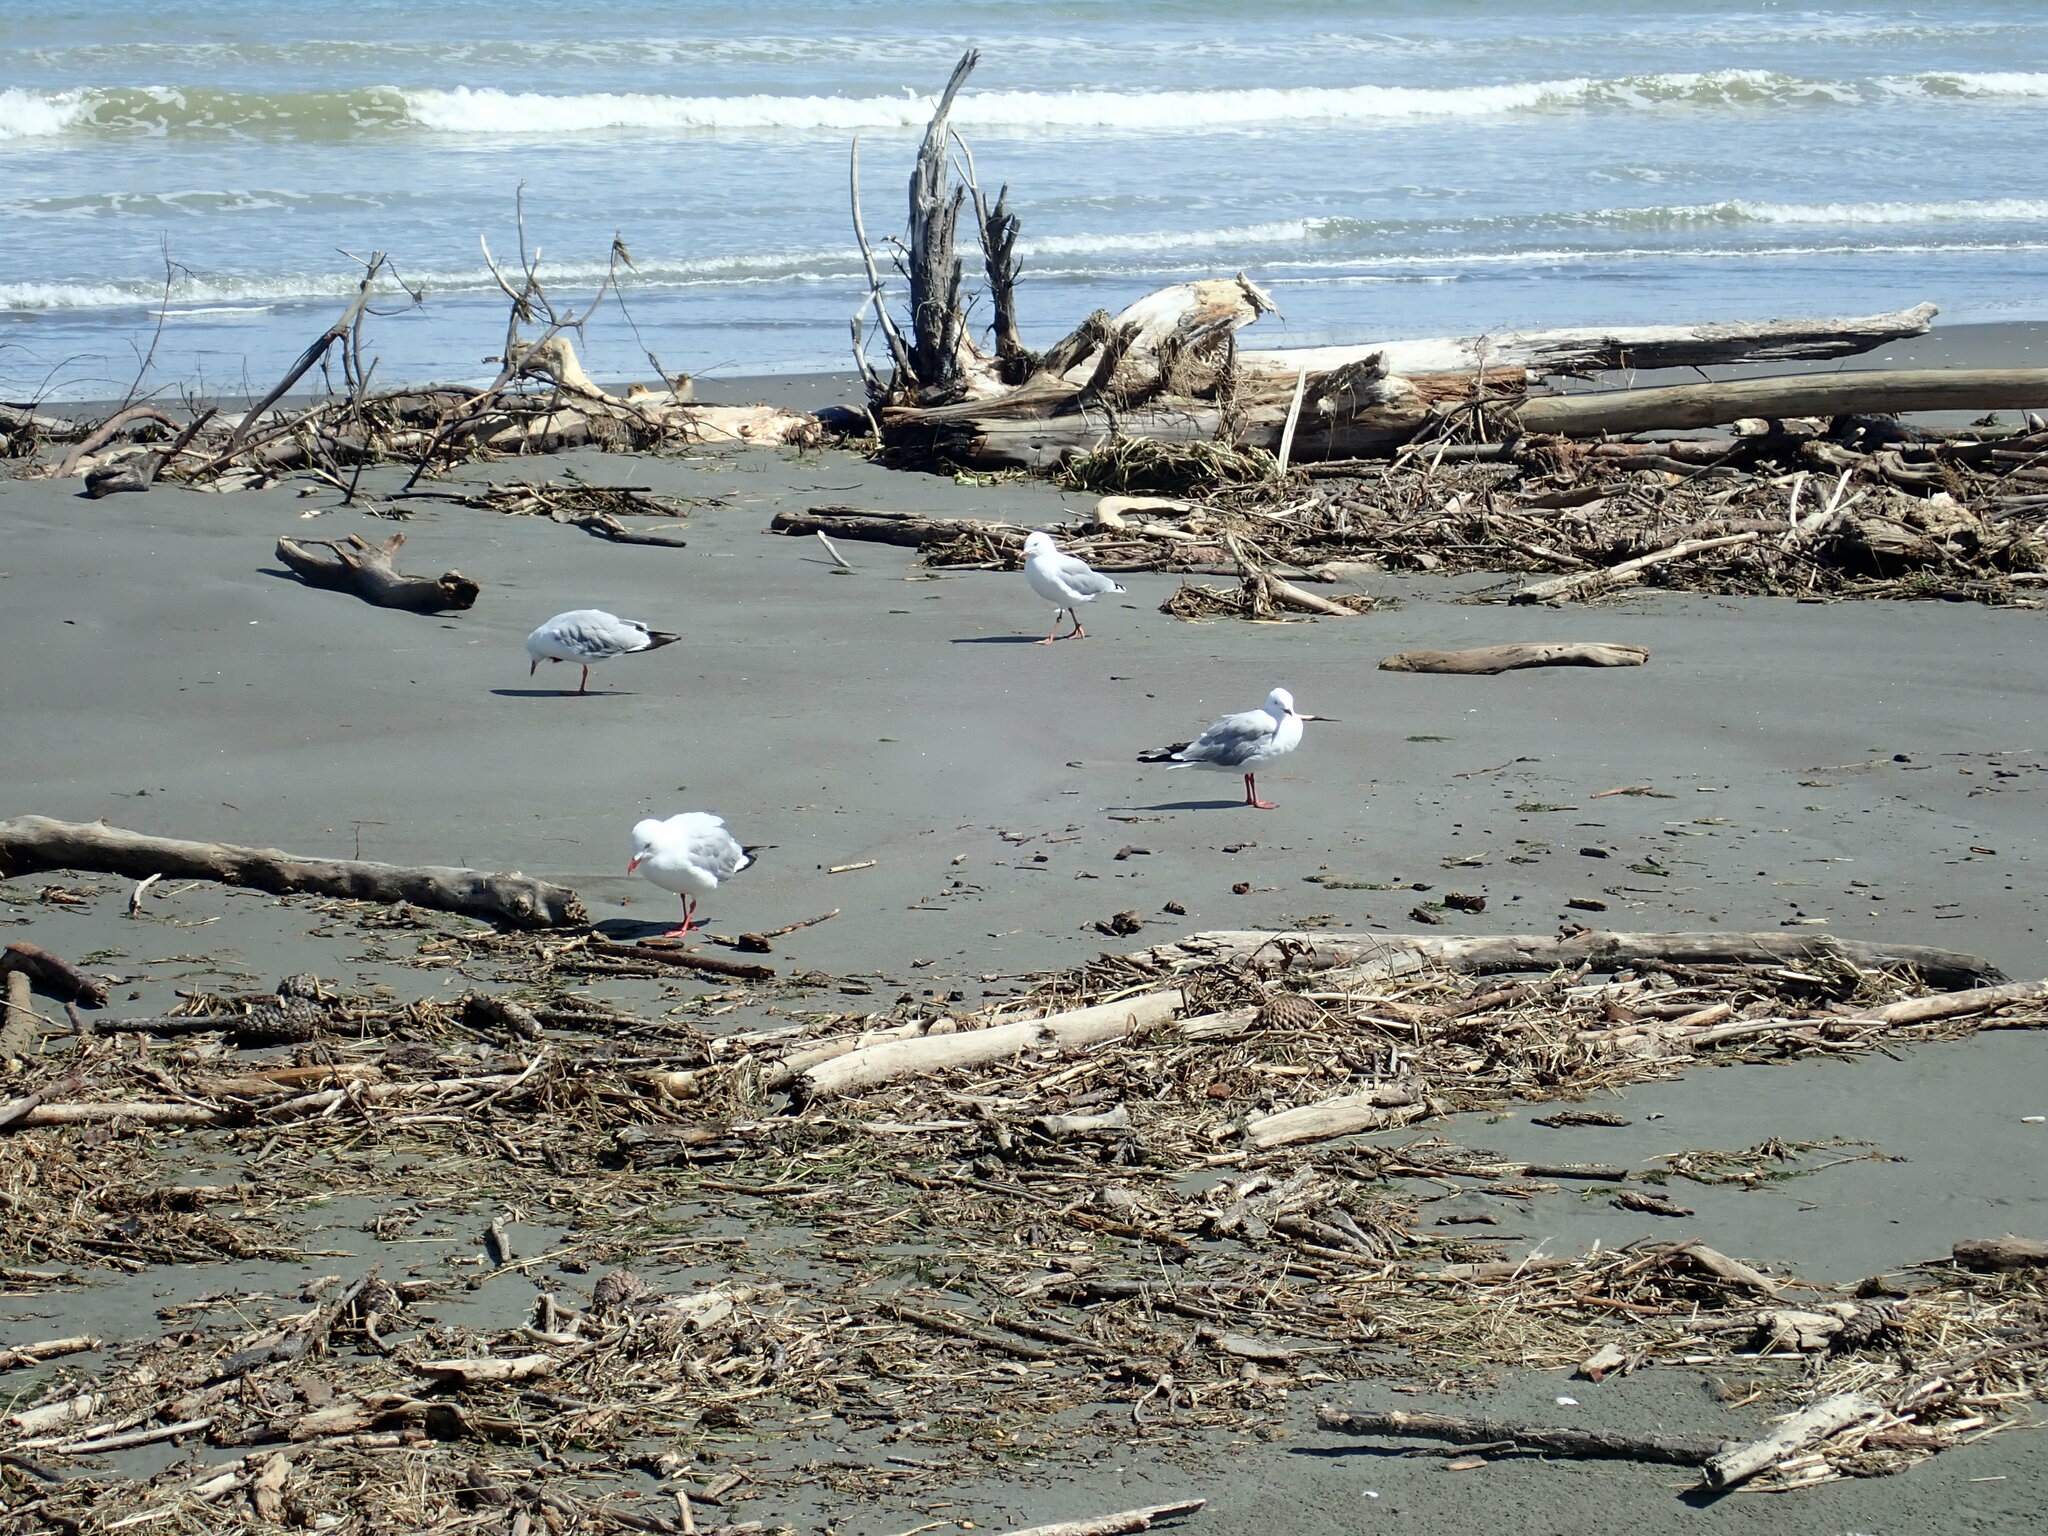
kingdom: Animalia
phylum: Chordata
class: Aves
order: Charadriiformes
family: Laridae
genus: Chroicocephalus
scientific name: Chroicocephalus bulleri
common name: Black-billed gull
